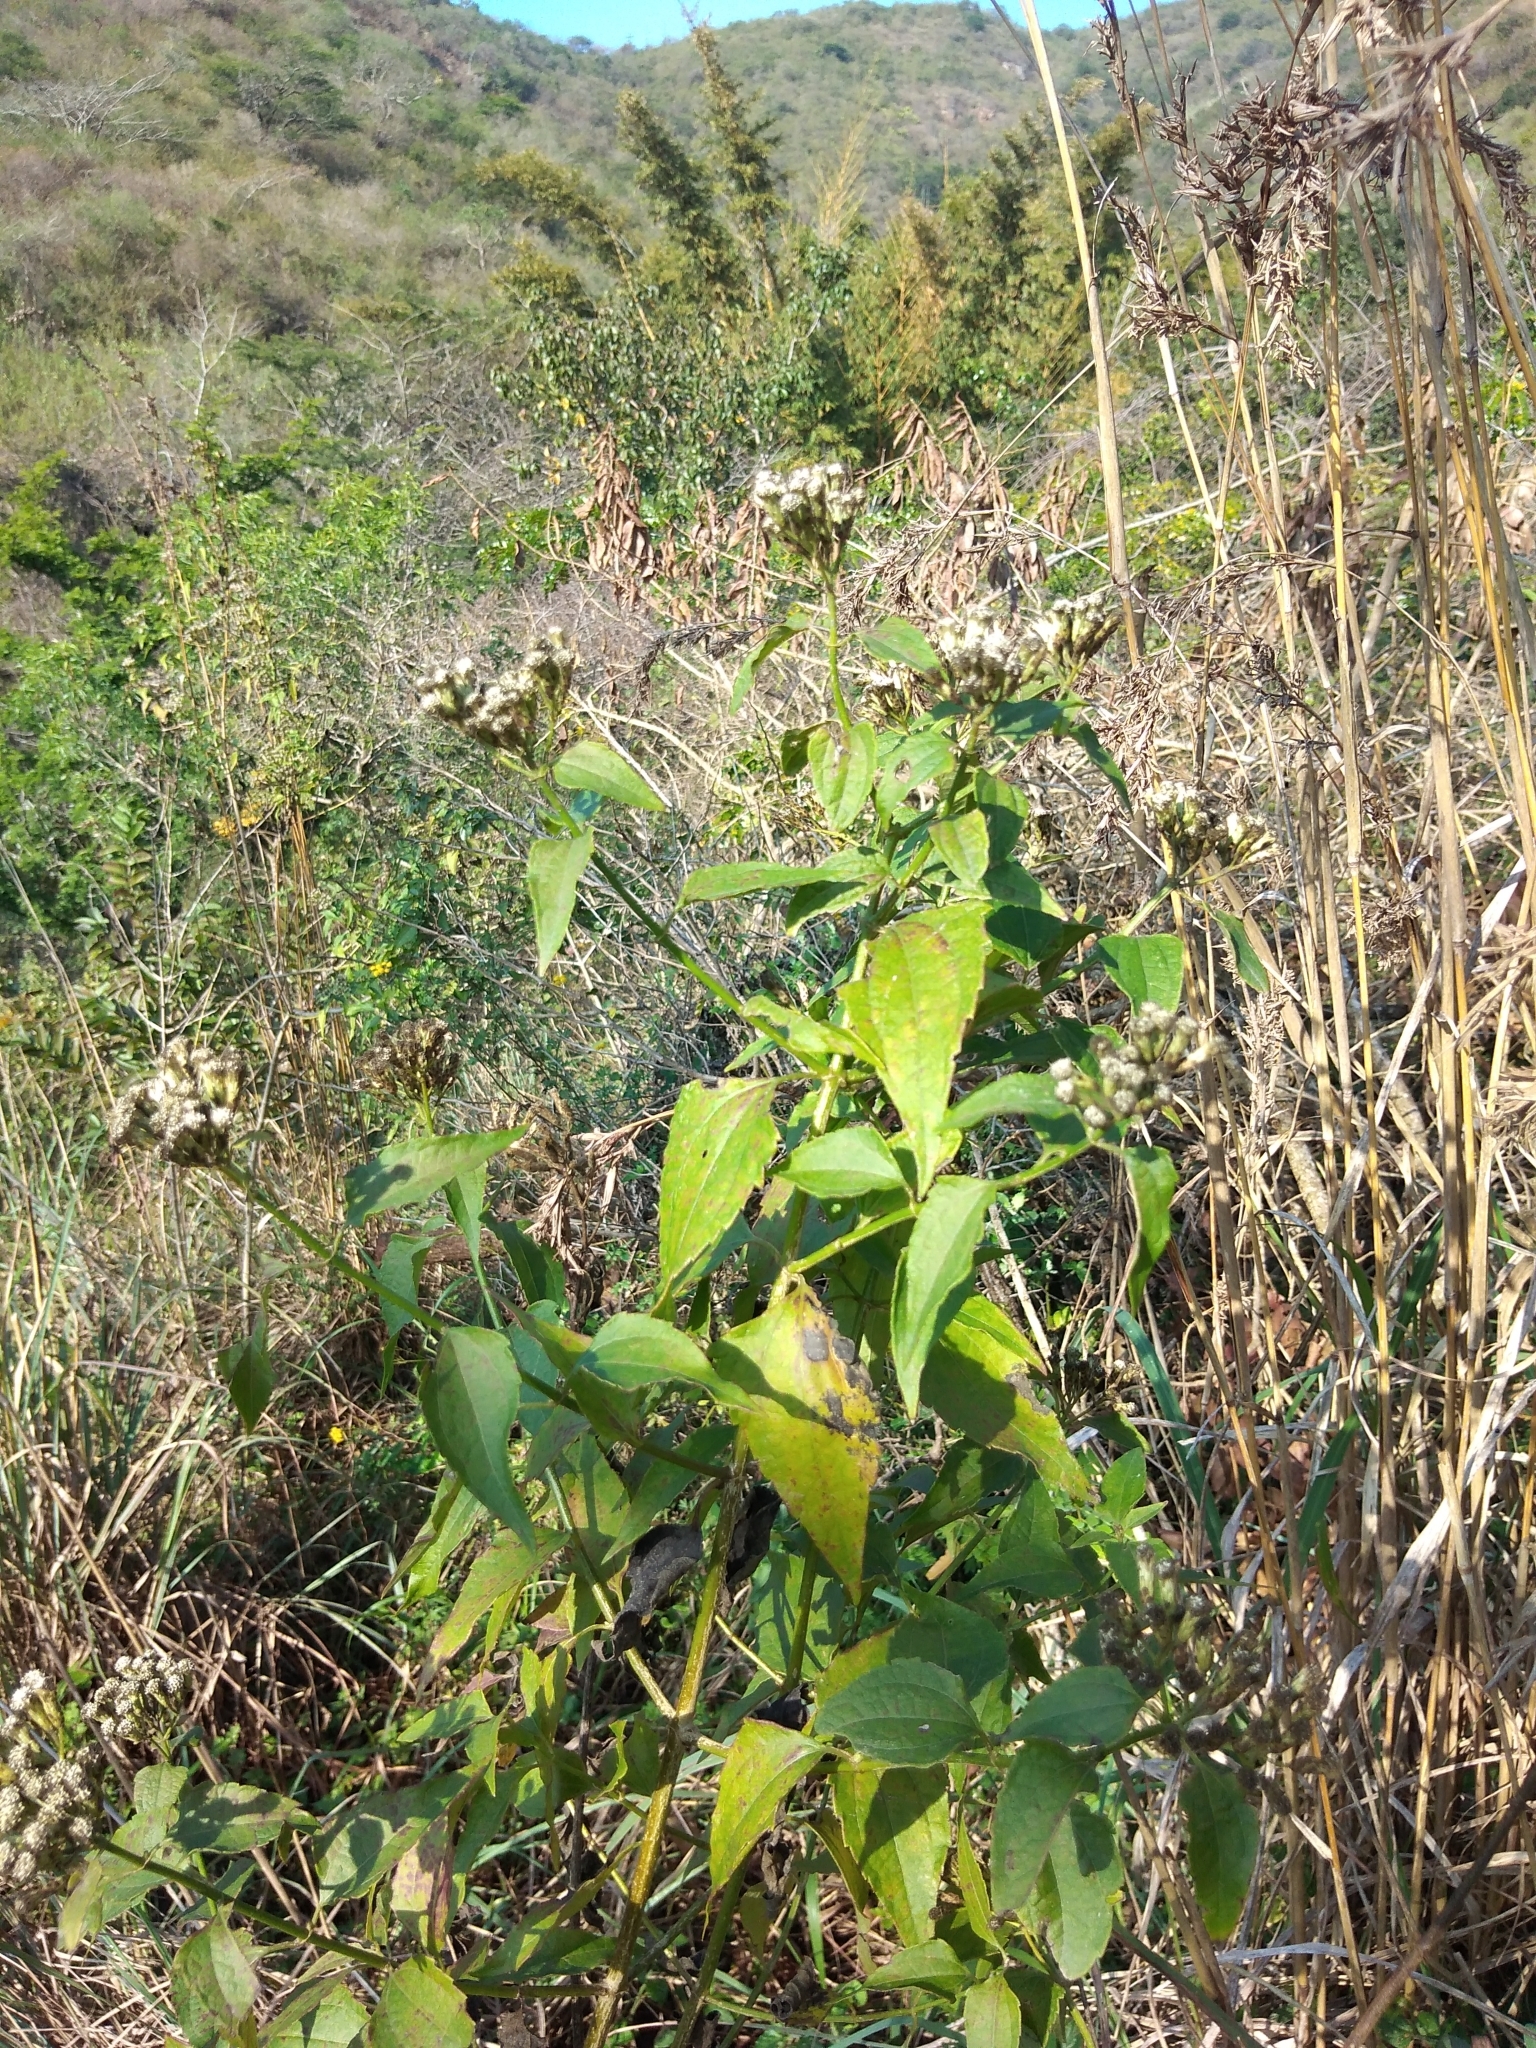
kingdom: Plantae
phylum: Tracheophyta
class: Magnoliopsida
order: Asterales
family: Asteraceae
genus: Chromolaena
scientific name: Chromolaena odorata
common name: Siamweed
